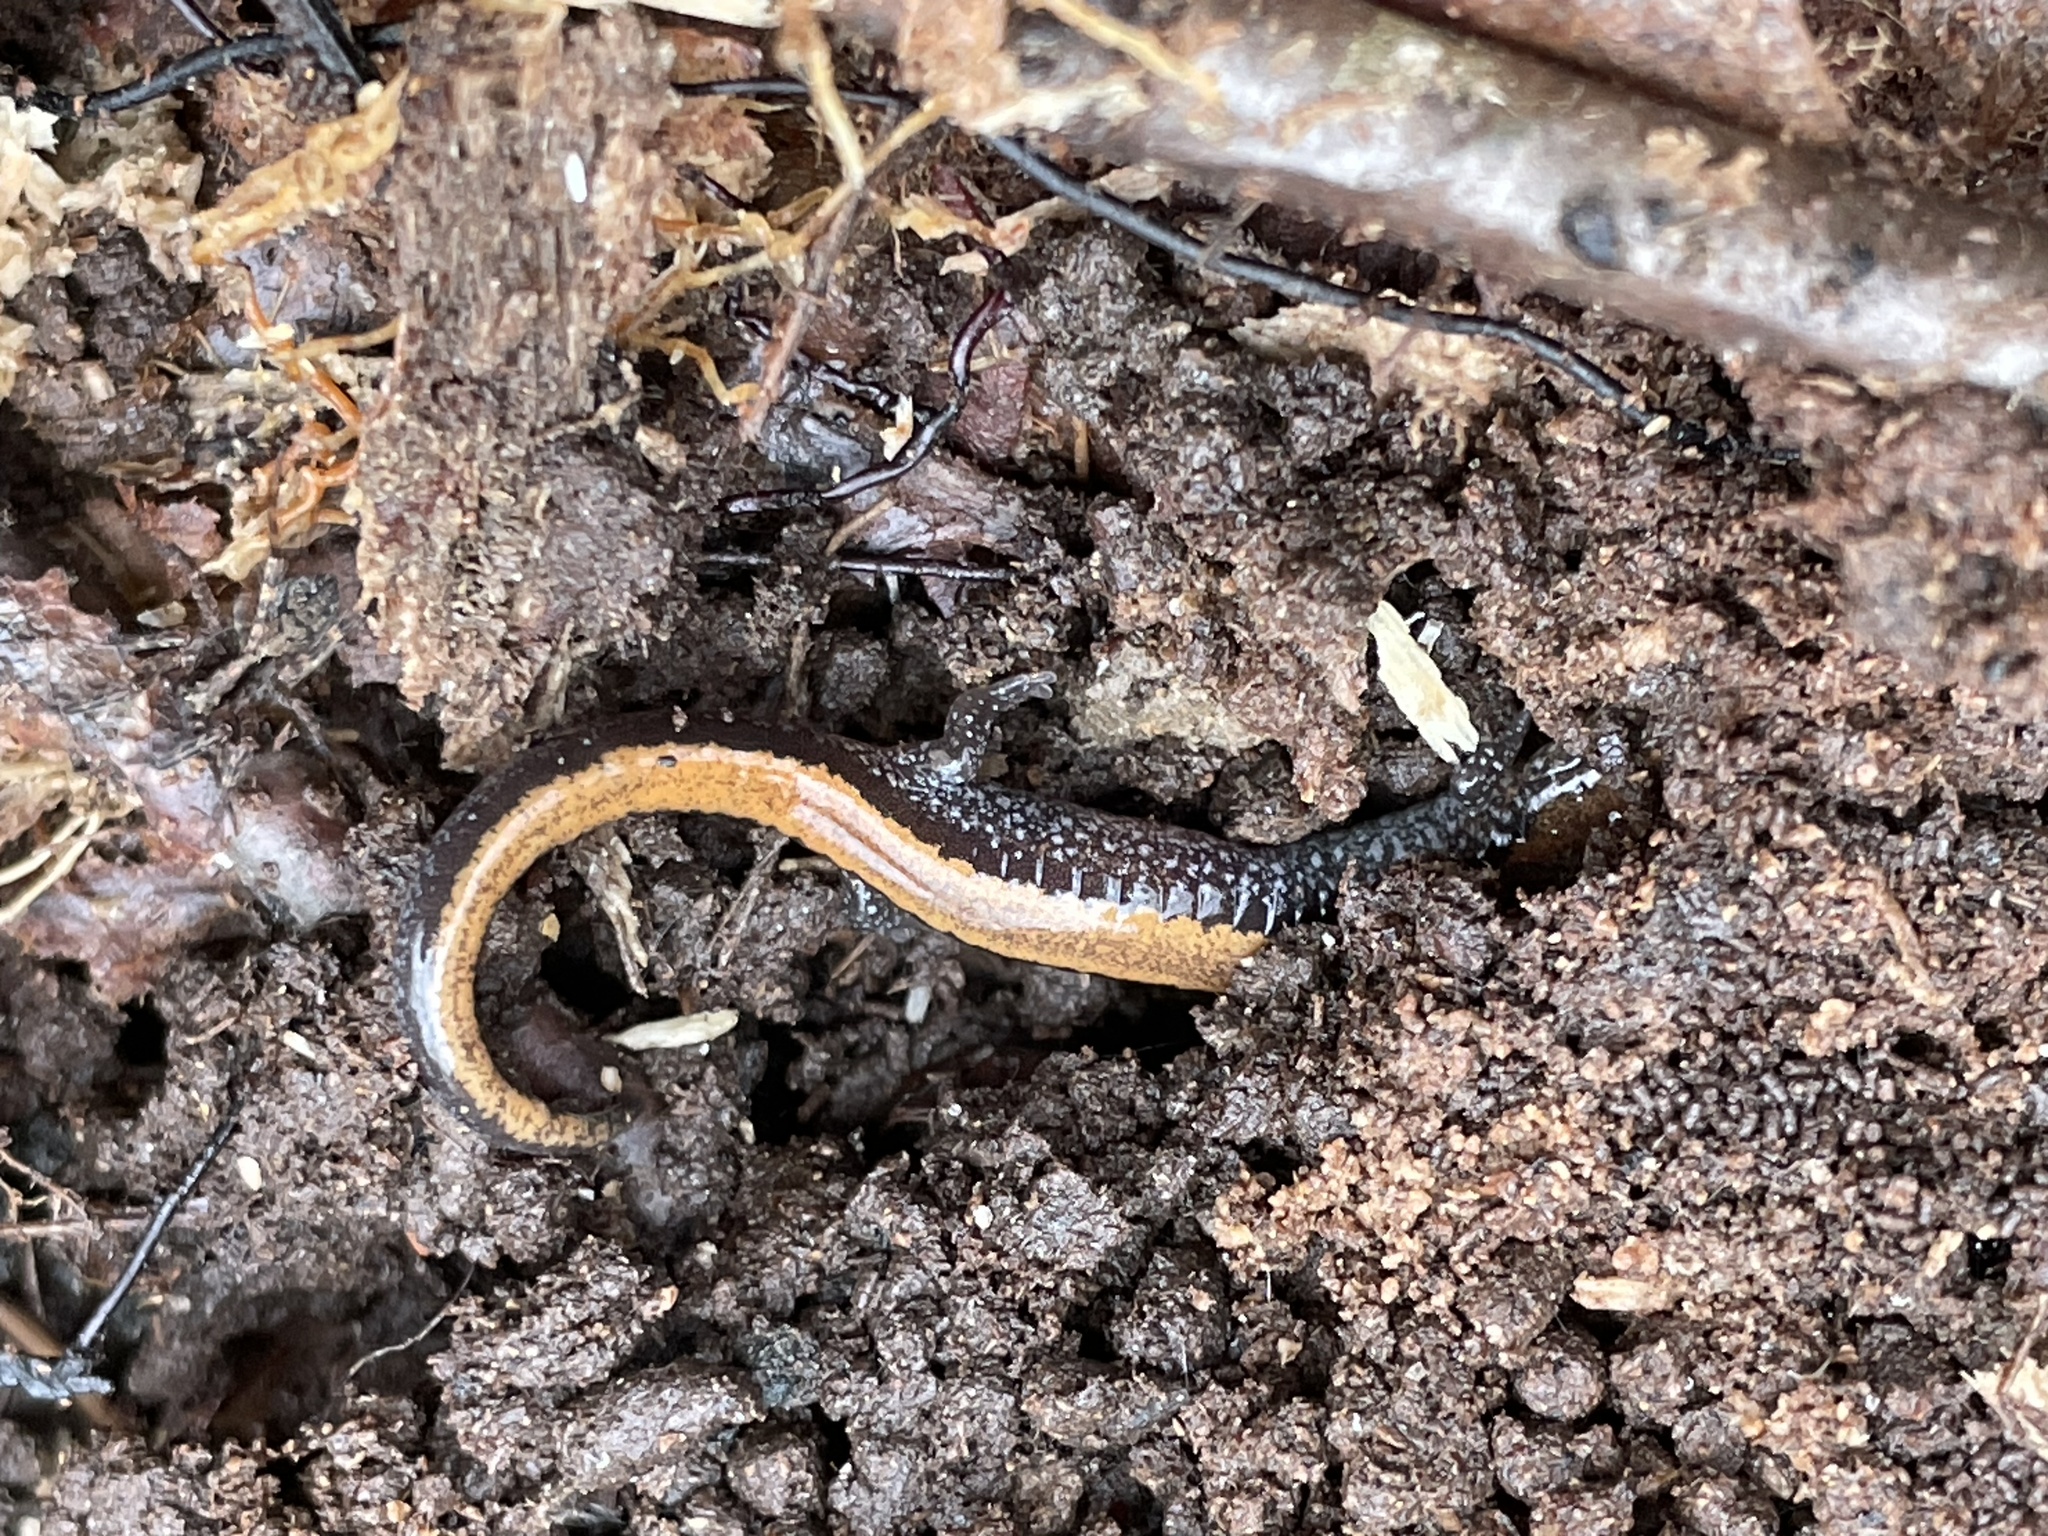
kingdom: Animalia
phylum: Chordata
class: Amphibia
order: Caudata
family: Plethodontidae
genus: Plethodon
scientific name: Plethodon cinereus
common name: Redback salamander
